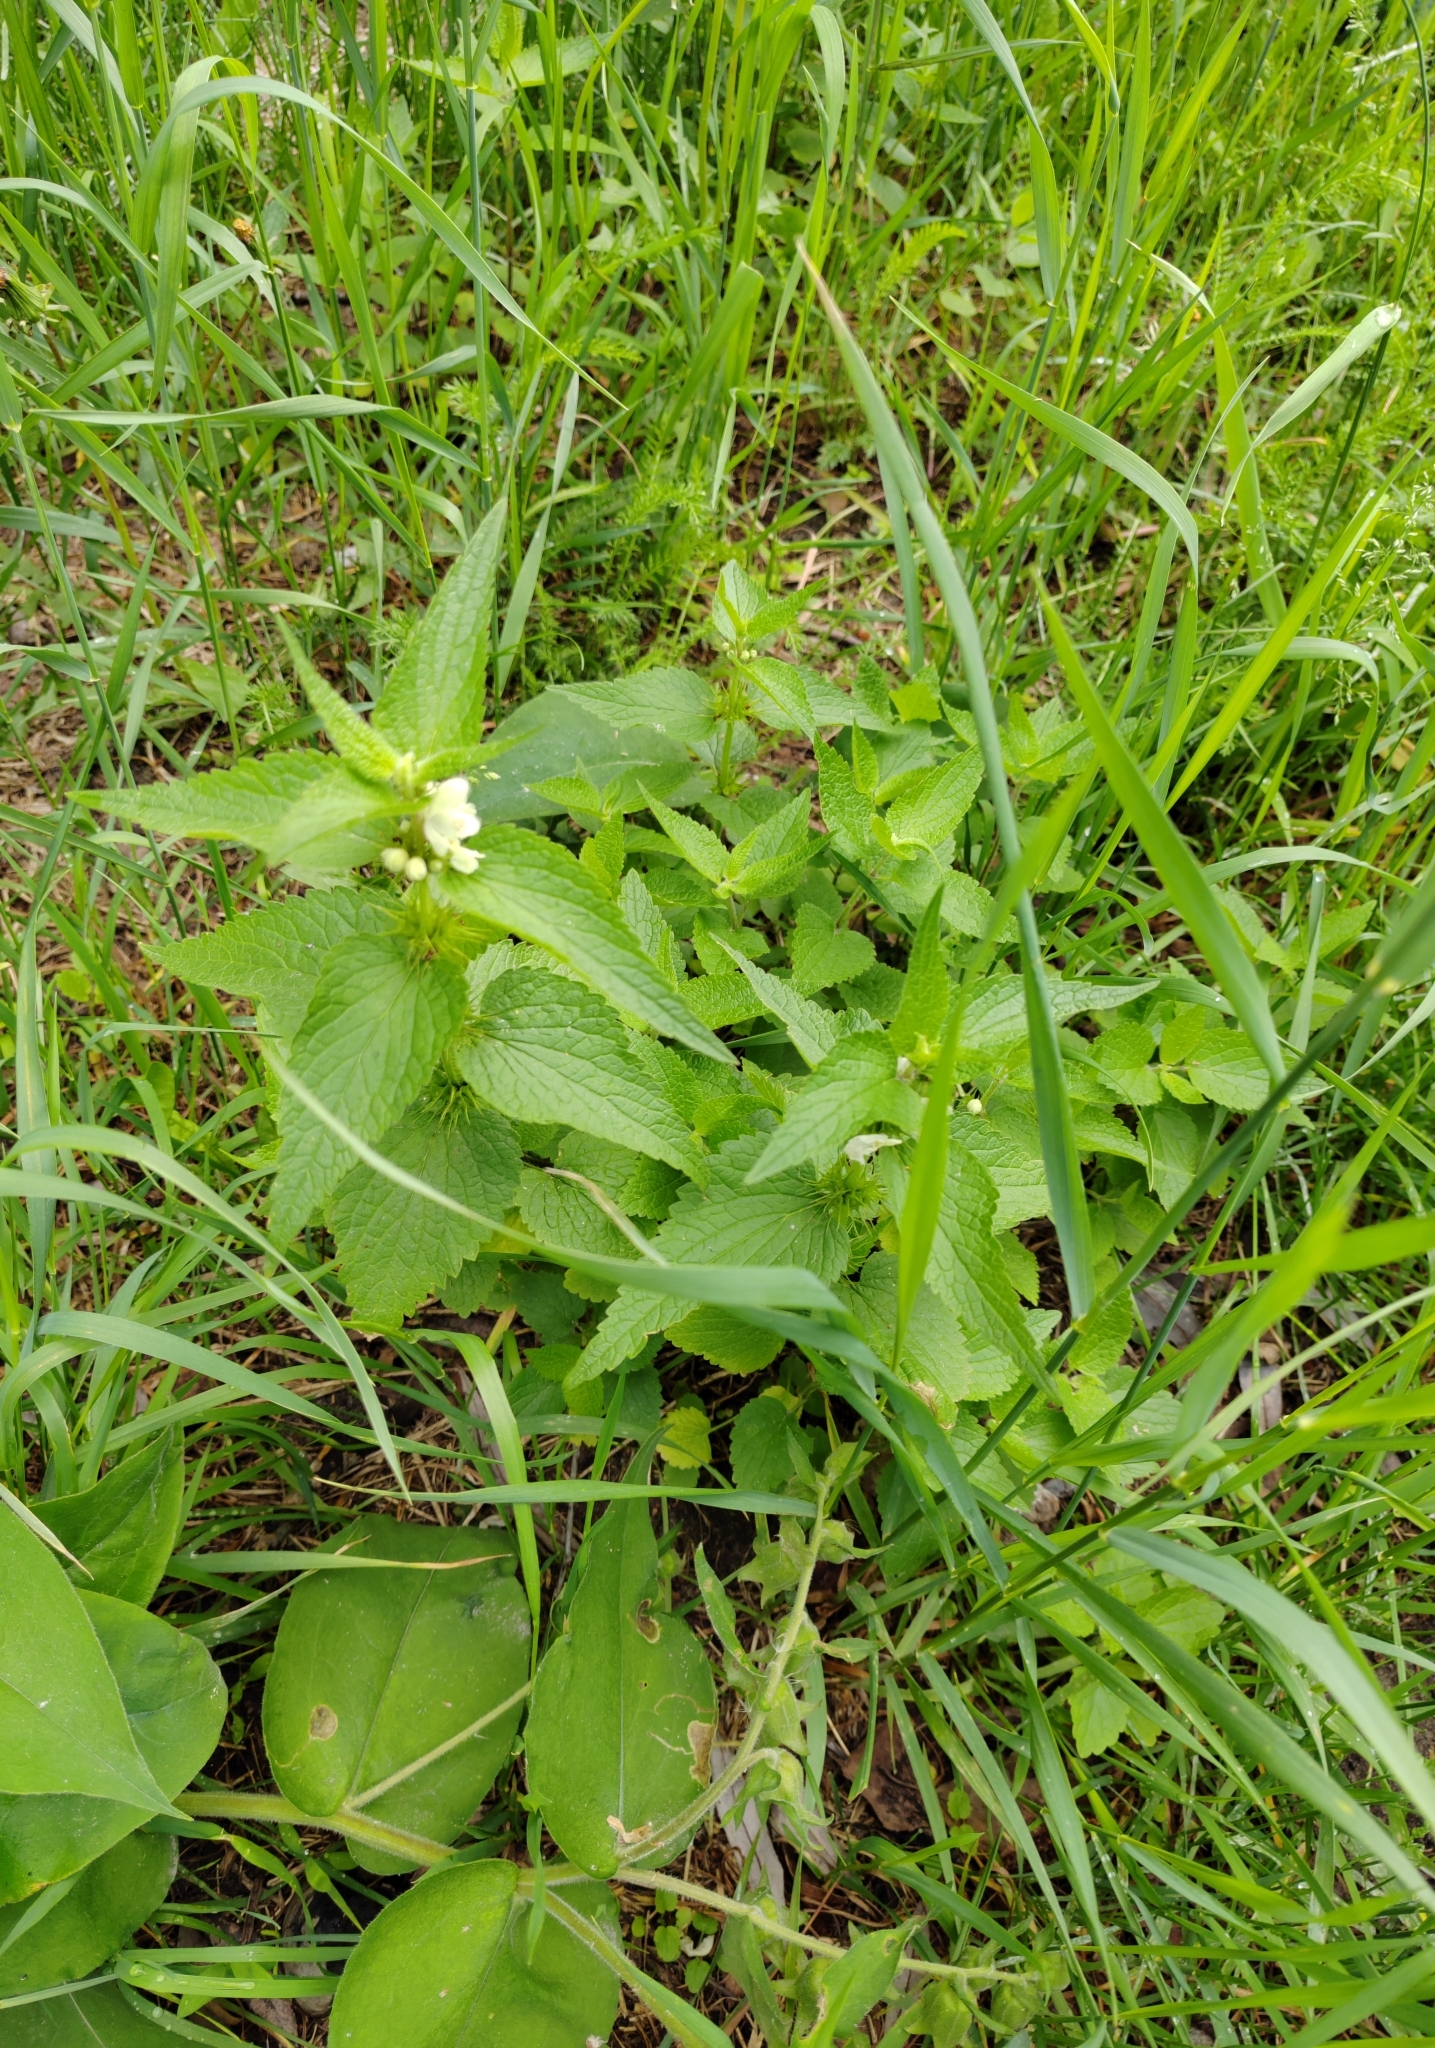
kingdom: Plantae
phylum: Tracheophyta
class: Magnoliopsida
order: Lamiales
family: Lamiaceae
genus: Lamium
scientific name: Lamium album
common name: White dead-nettle
